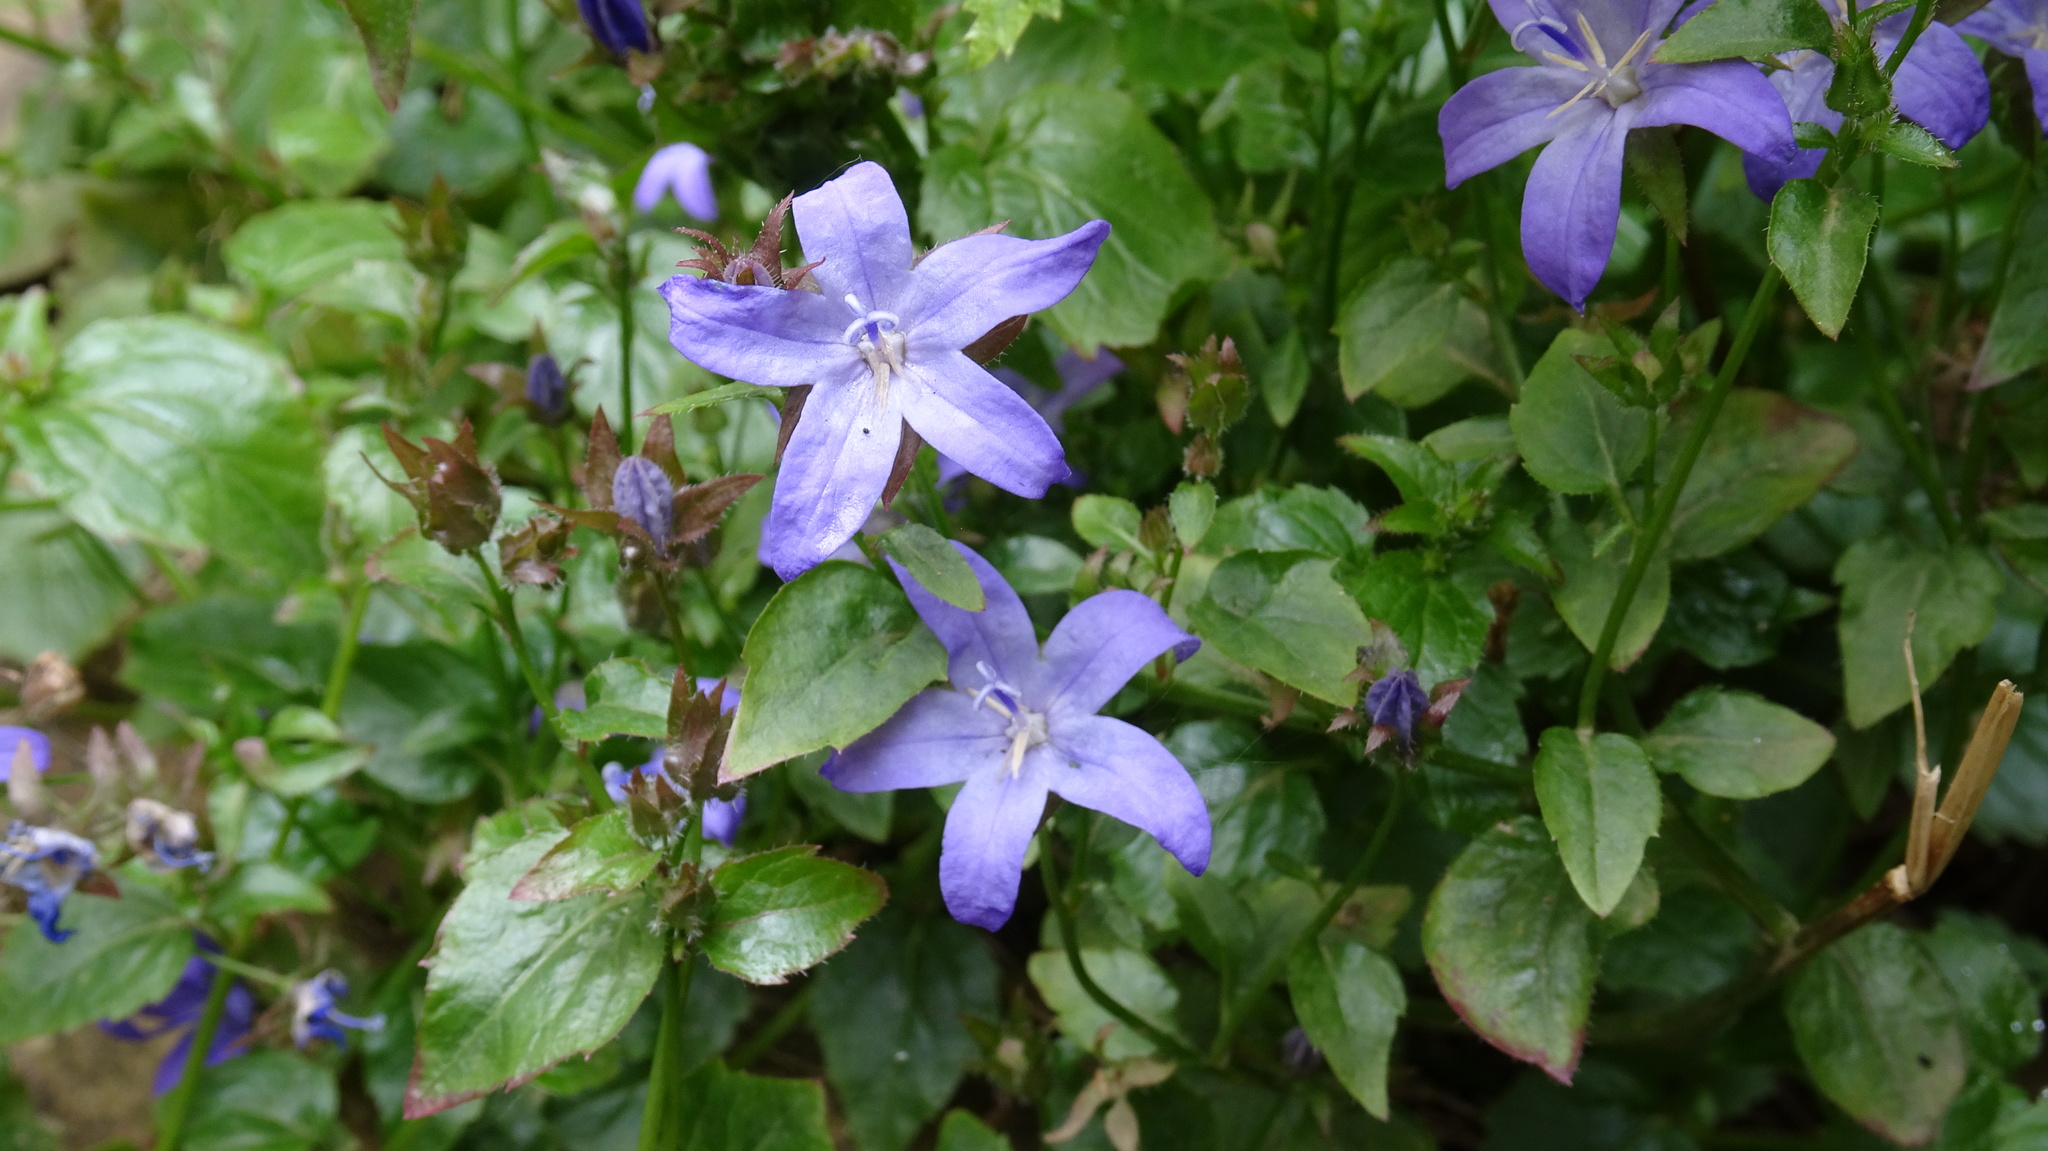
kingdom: Plantae
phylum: Tracheophyta
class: Magnoliopsida
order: Asterales
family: Campanulaceae
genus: Campanula
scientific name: Campanula poscharskyana
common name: Trailing bellflower
